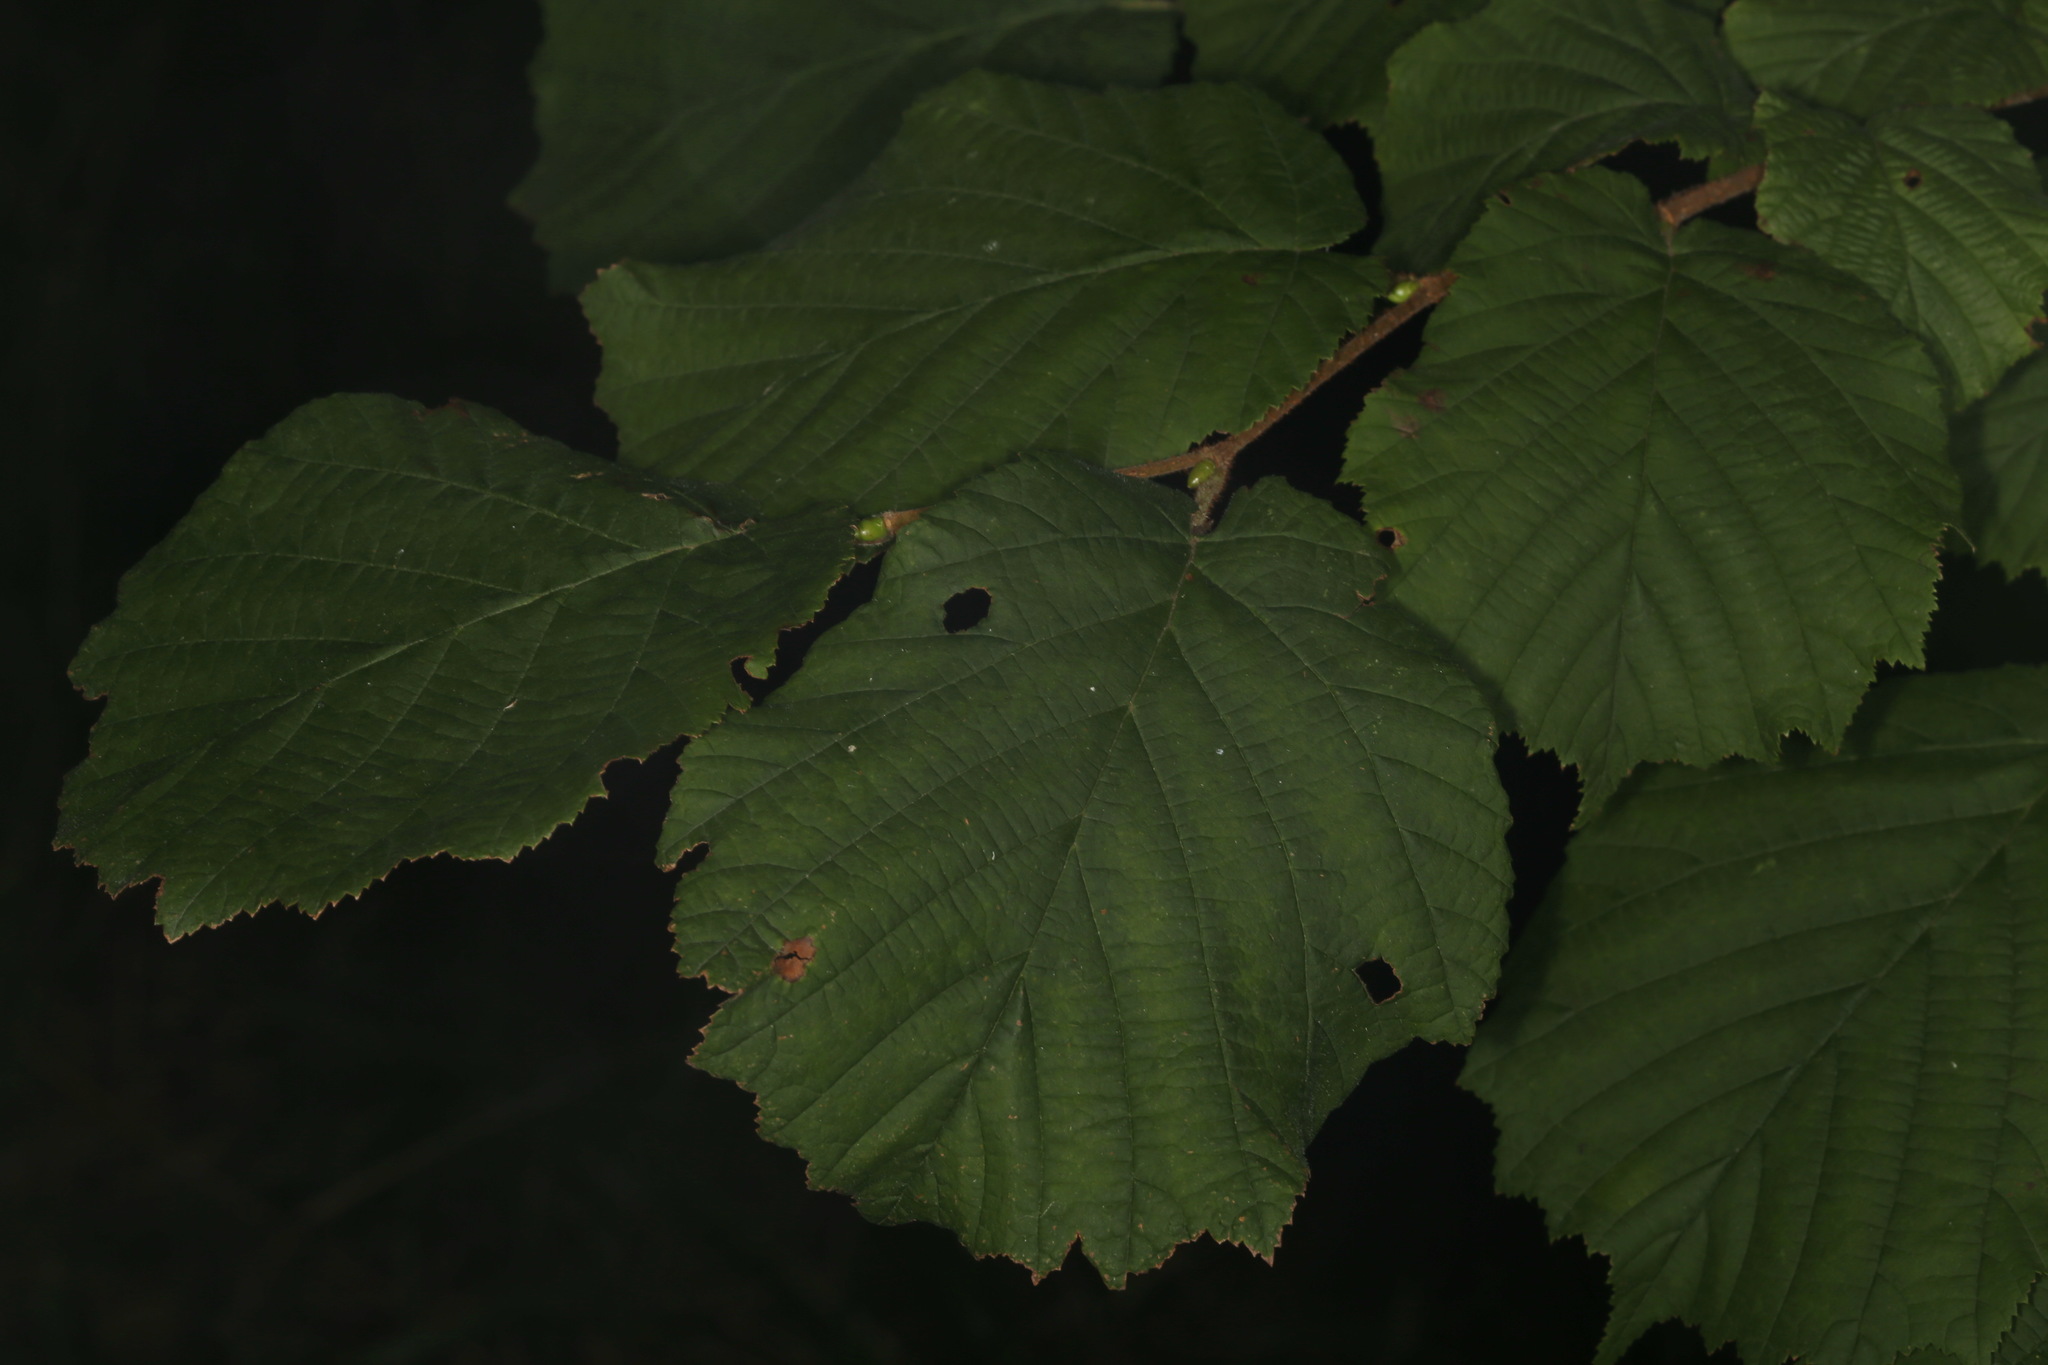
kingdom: Plantae
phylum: Tracheophyta
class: Magnoliopsida
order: Fagales
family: Betulaceae
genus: Corylus
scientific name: Corylus avellana
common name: European hazel
